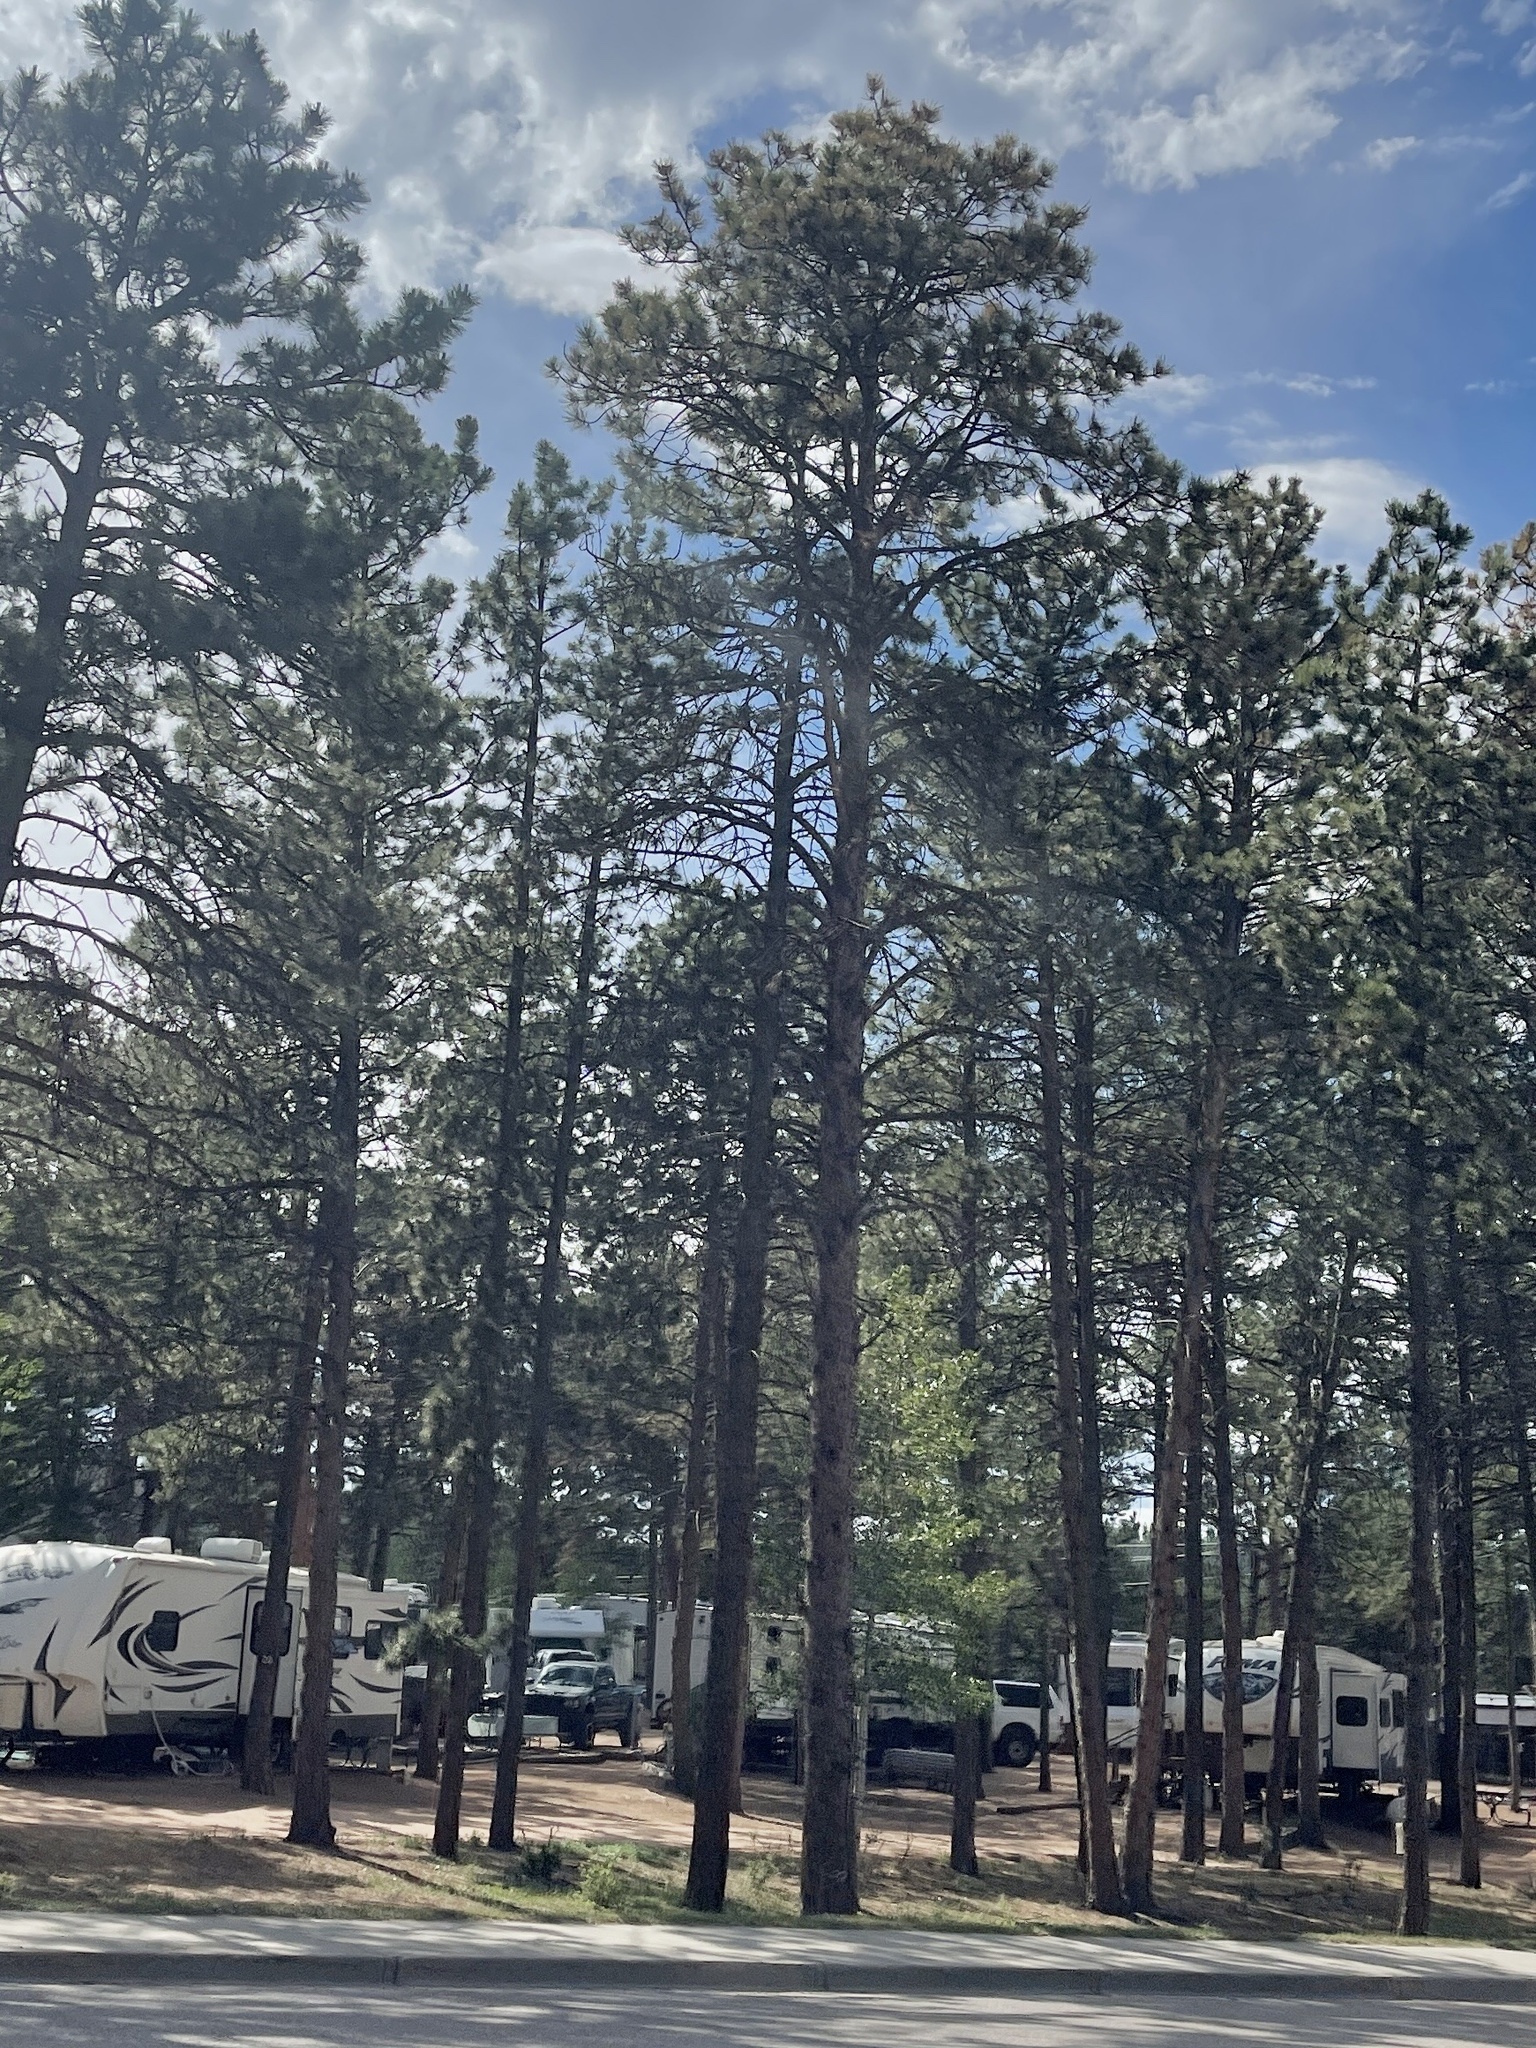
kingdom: Plantae
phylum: Tracheophyta
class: Pinopsida
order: Pinales
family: Pinaceae
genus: Pinus
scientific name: Pinus ponderosa
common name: Western yellow-pine
